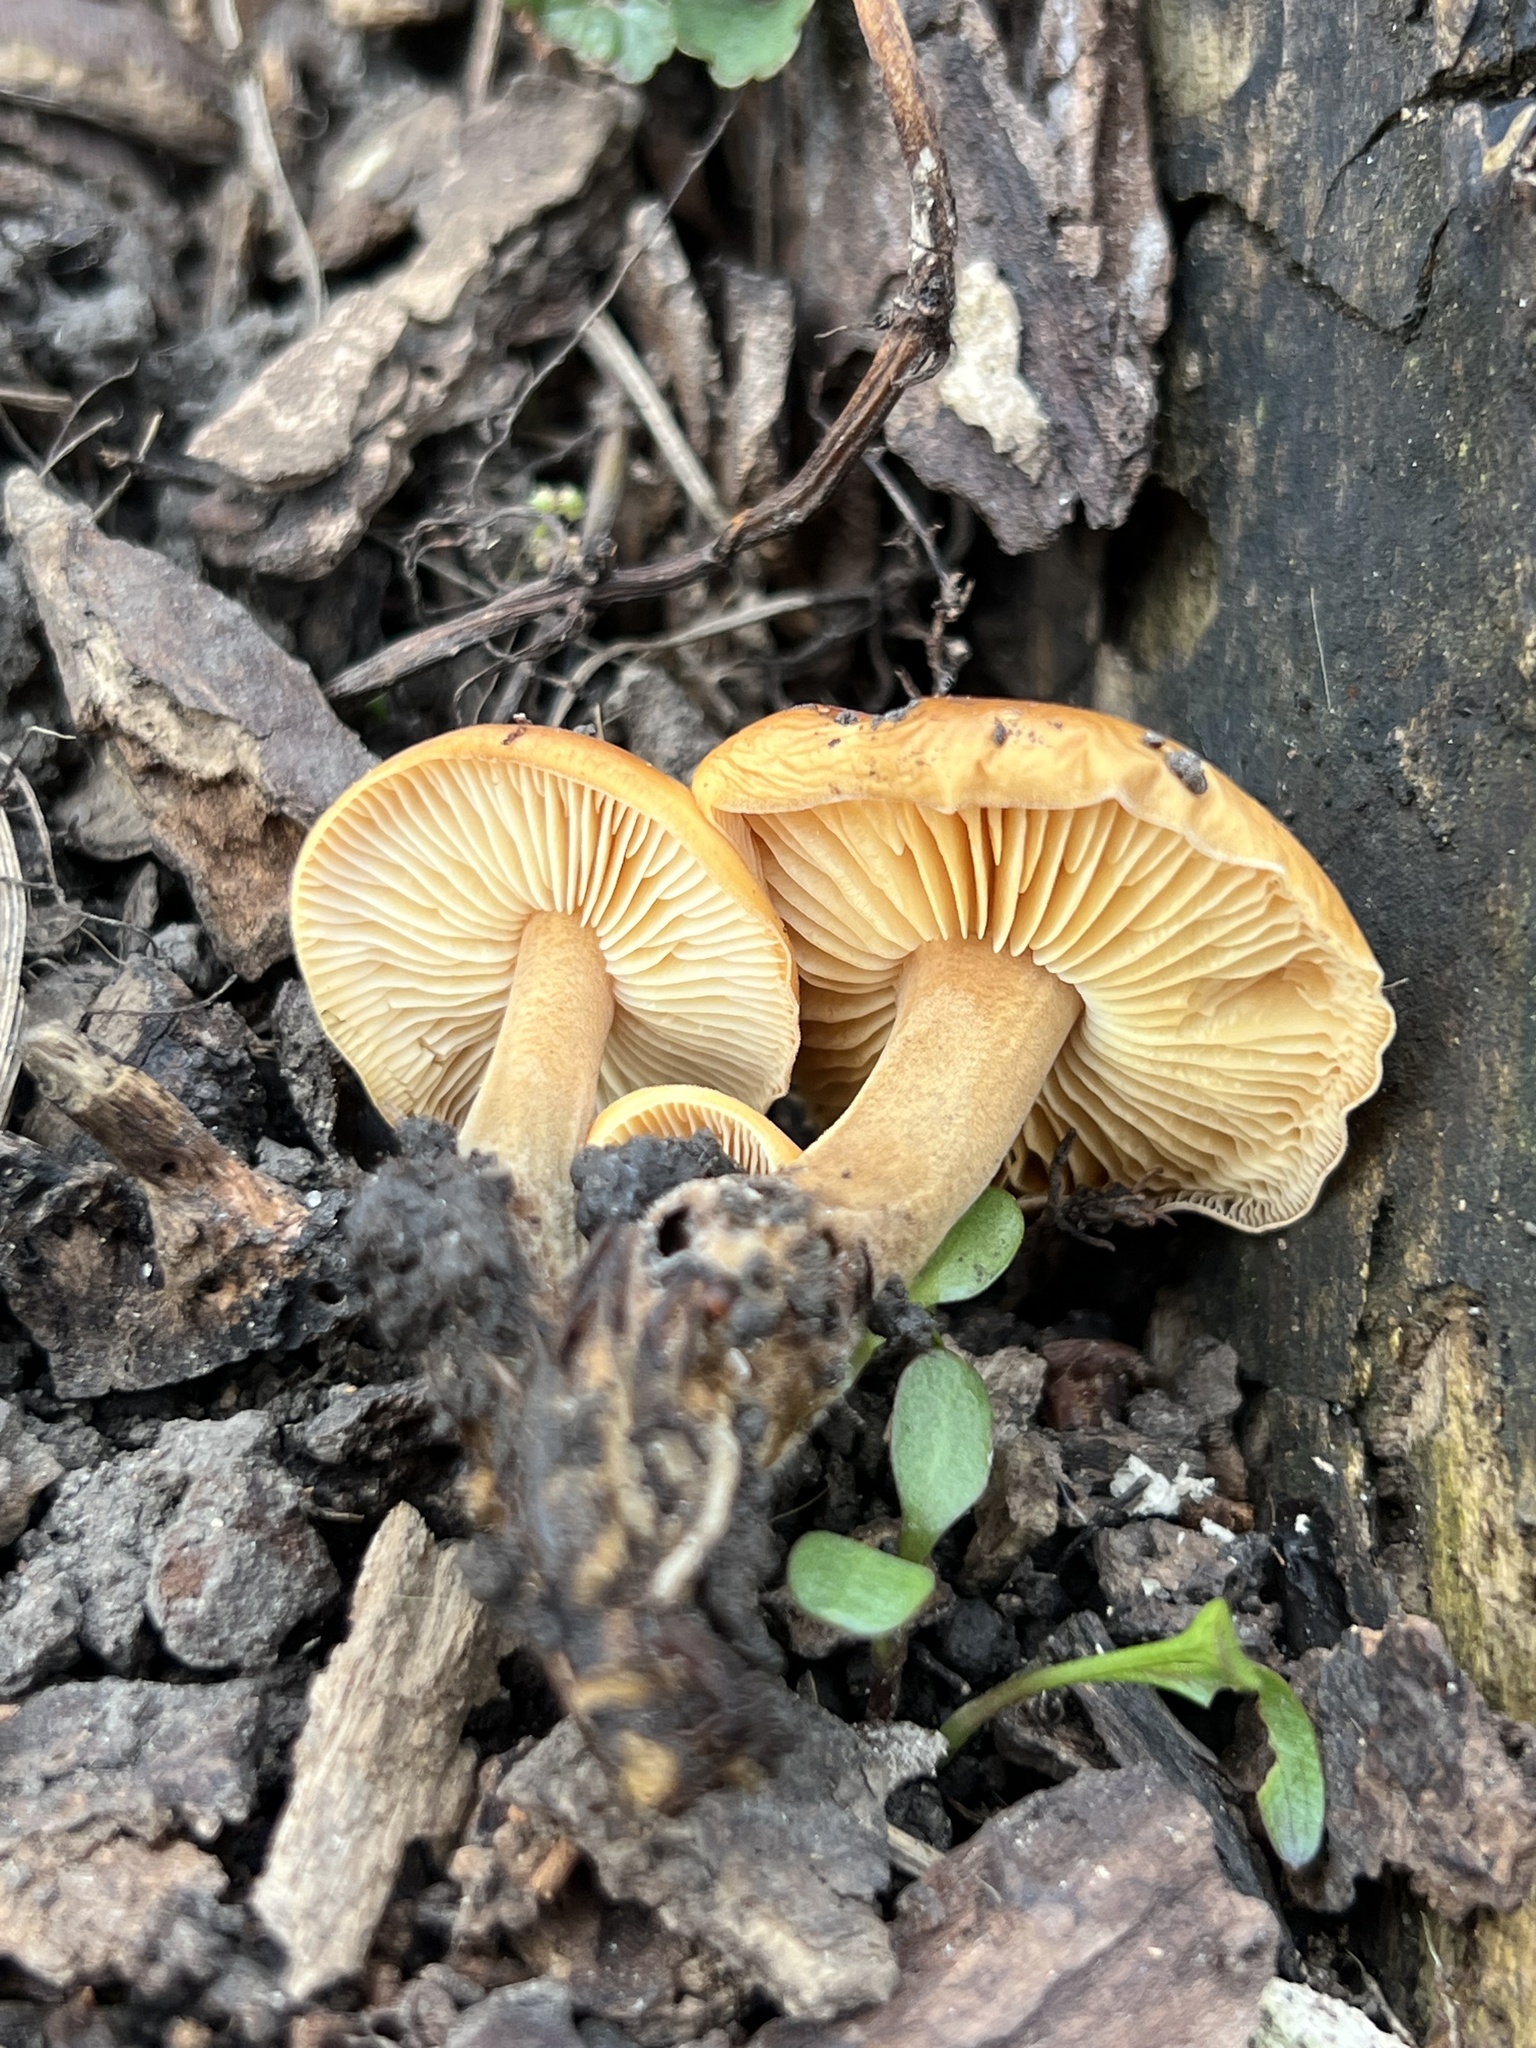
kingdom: Fungi
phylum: Basidiomycota
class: Agaricomycetes
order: Agaricales
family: Physalacriaceae
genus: Flammulina
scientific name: Flammulina velutipes
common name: Velvet shank
